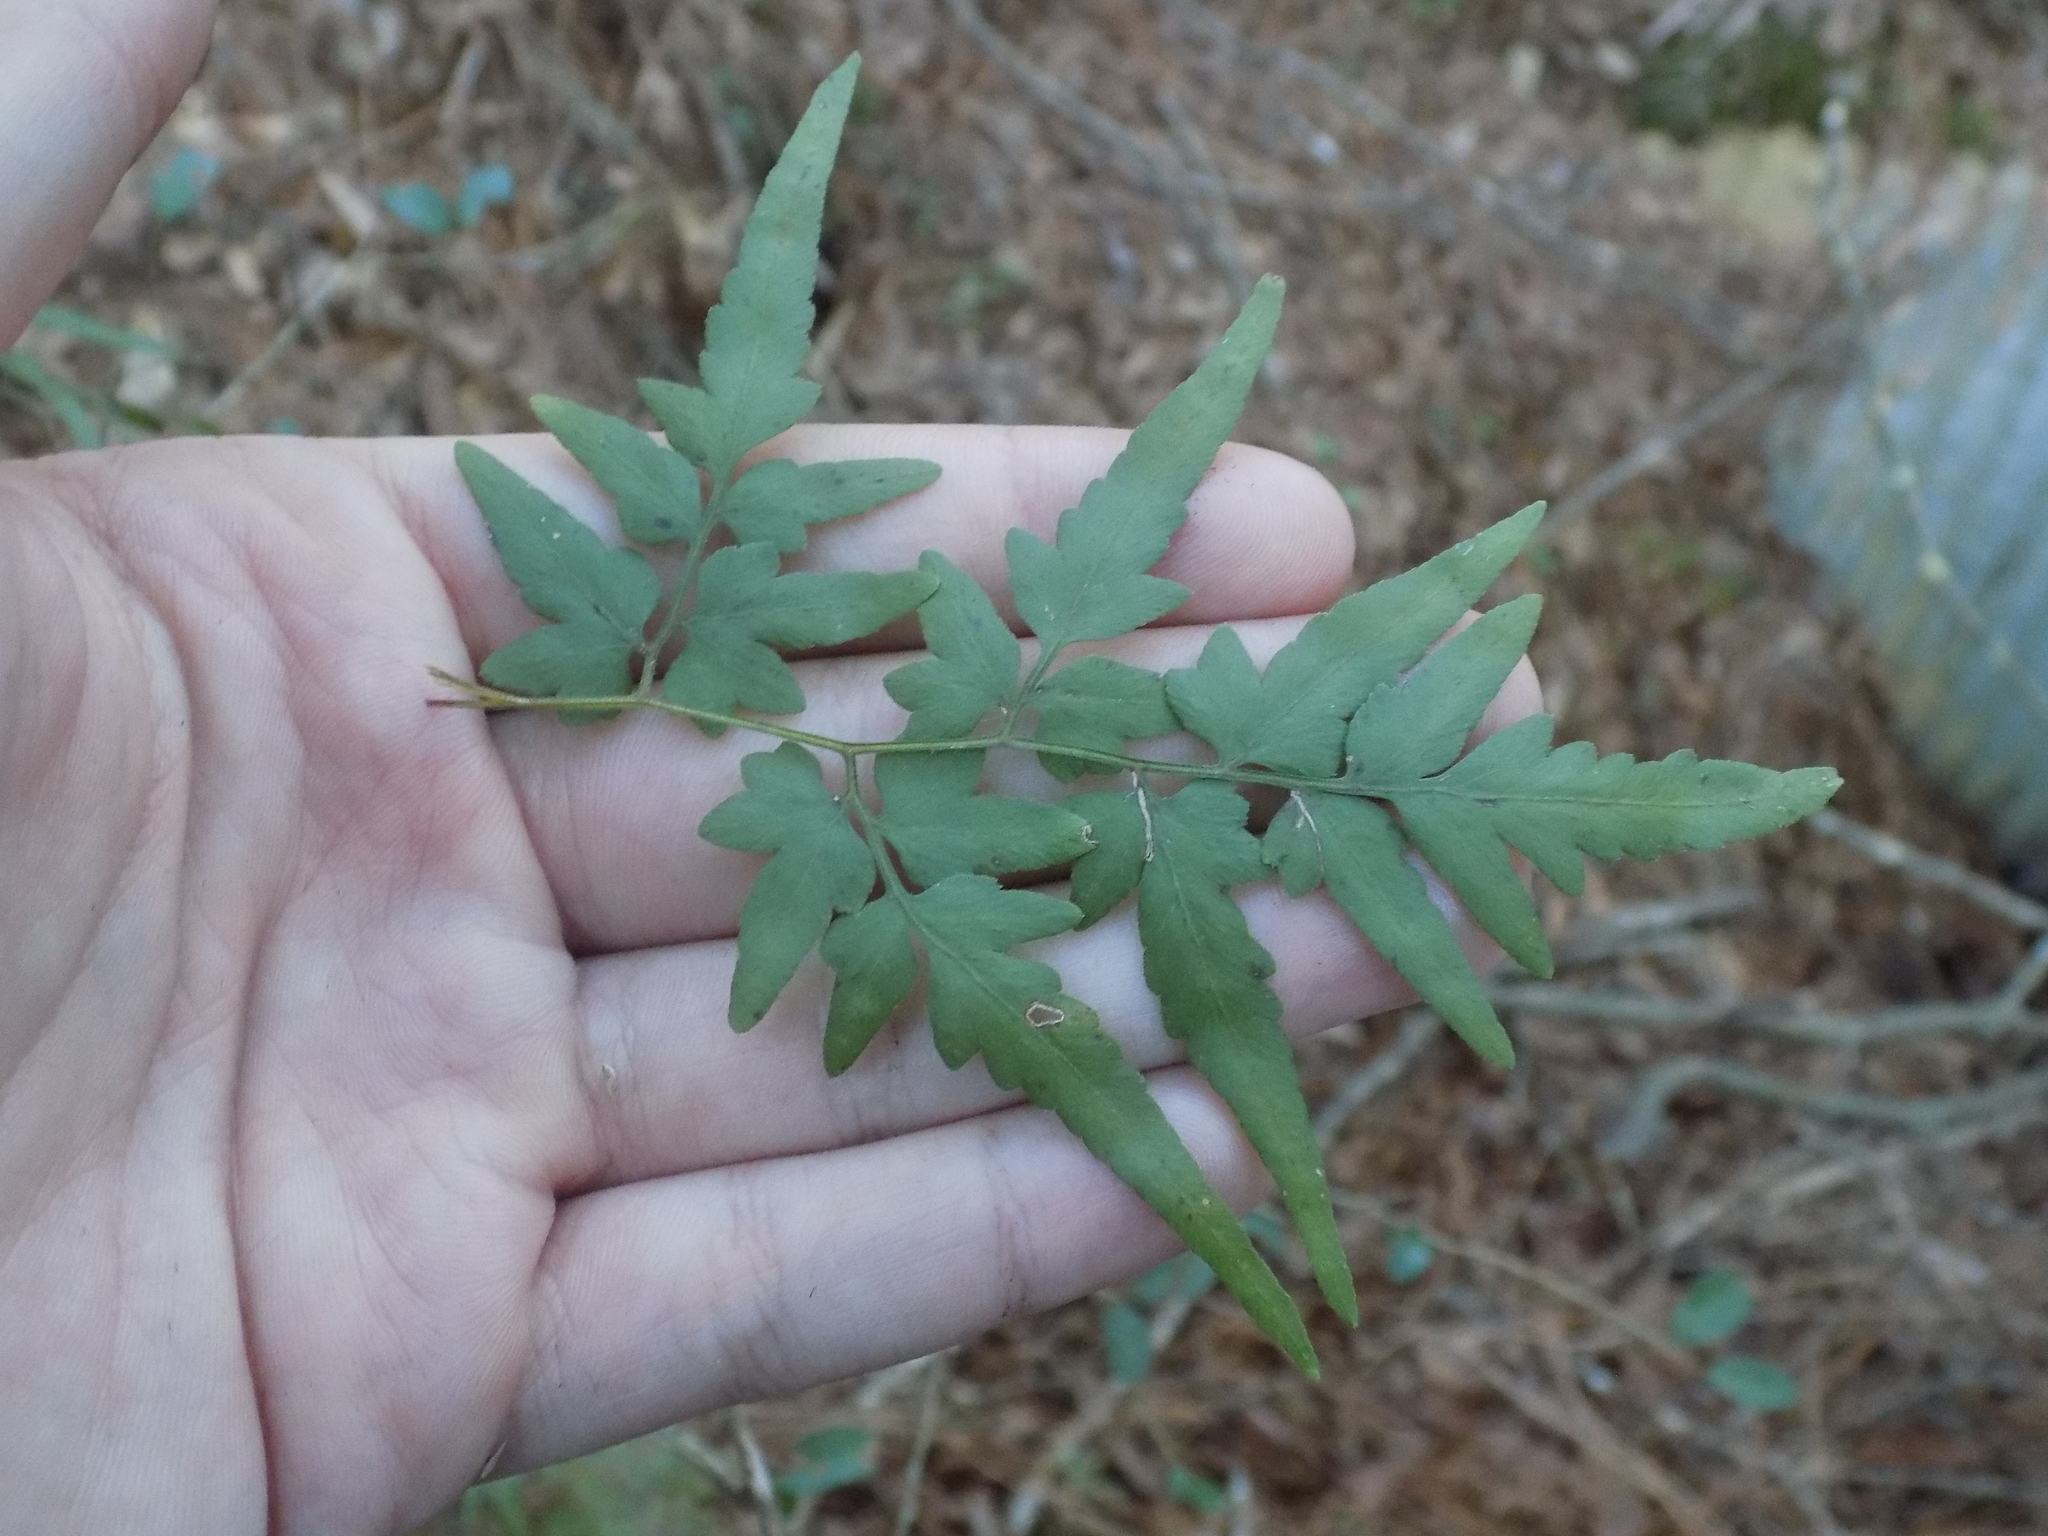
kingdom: Plantae
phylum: Tracheophyta
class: Polypodiopsida
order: Schizaeales
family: Lygodiaceae
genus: Lygodium
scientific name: Lygodium japonicum
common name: Japanese climbing fern
